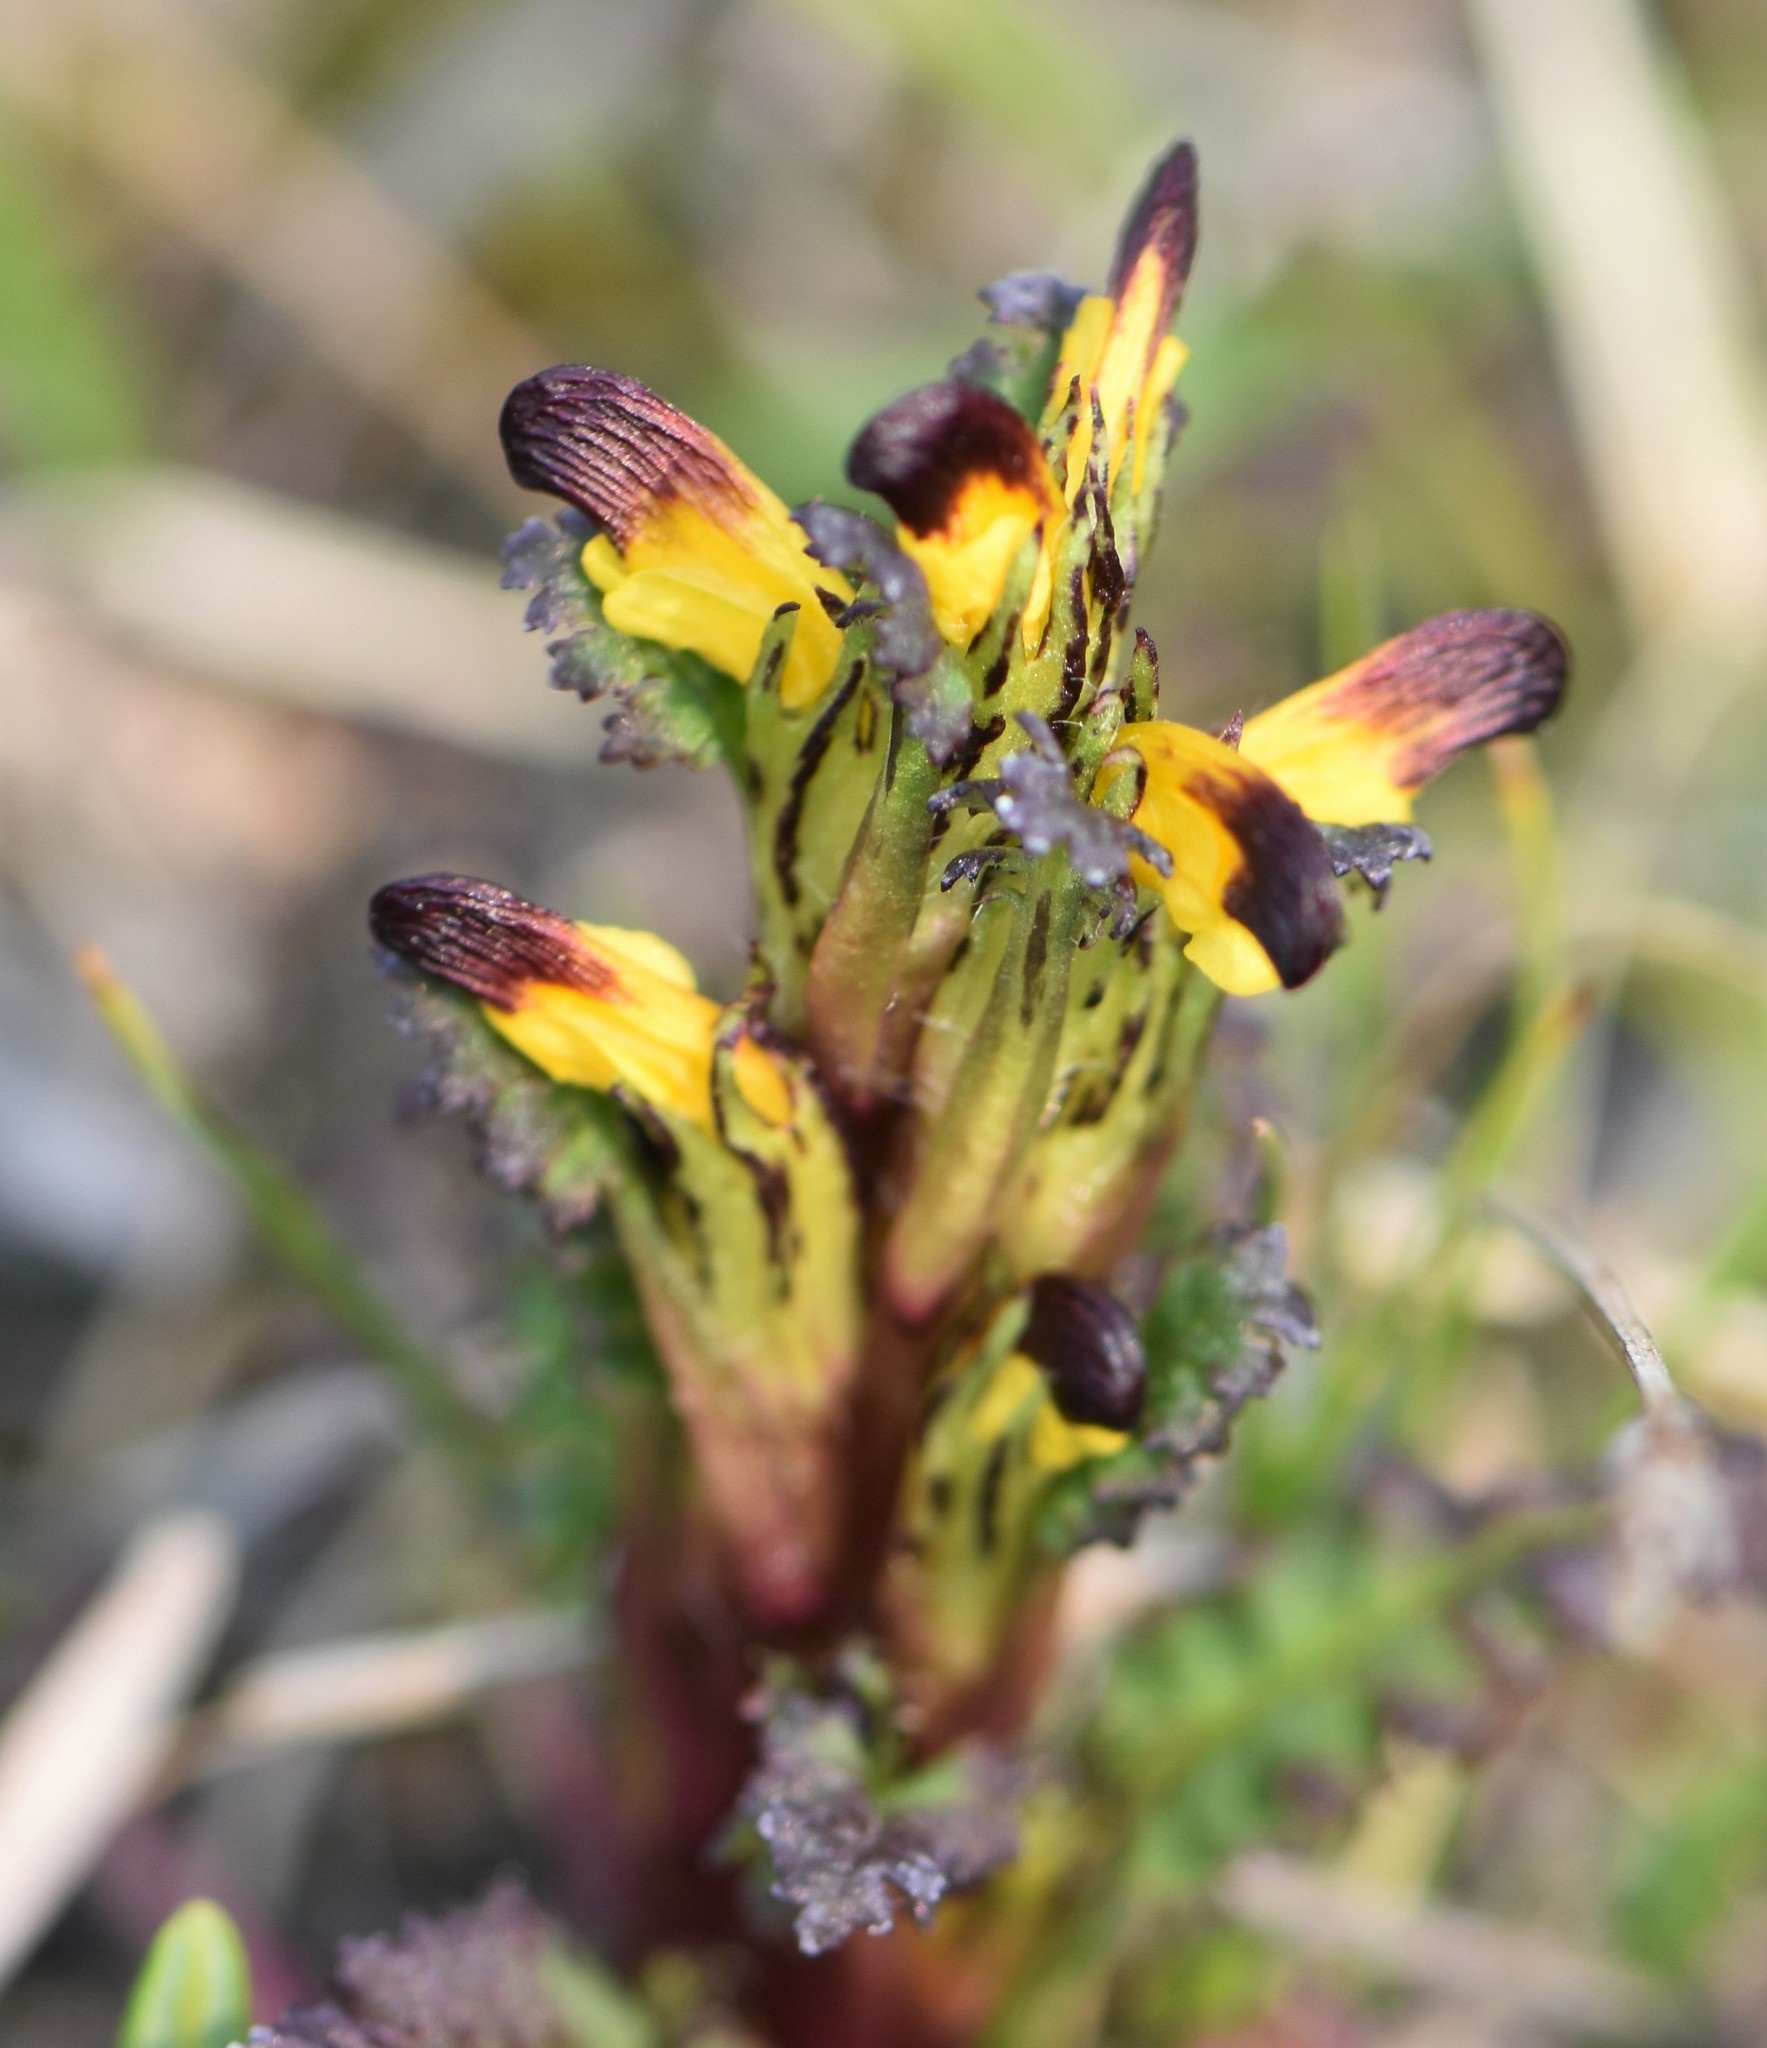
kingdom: Plantae
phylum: Tracheophyta
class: Magnoliopsida
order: Lamiales
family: Orobanchaceae
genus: Pedicularis
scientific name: Pedicularis flammea
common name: Flame-coloured lousewort
